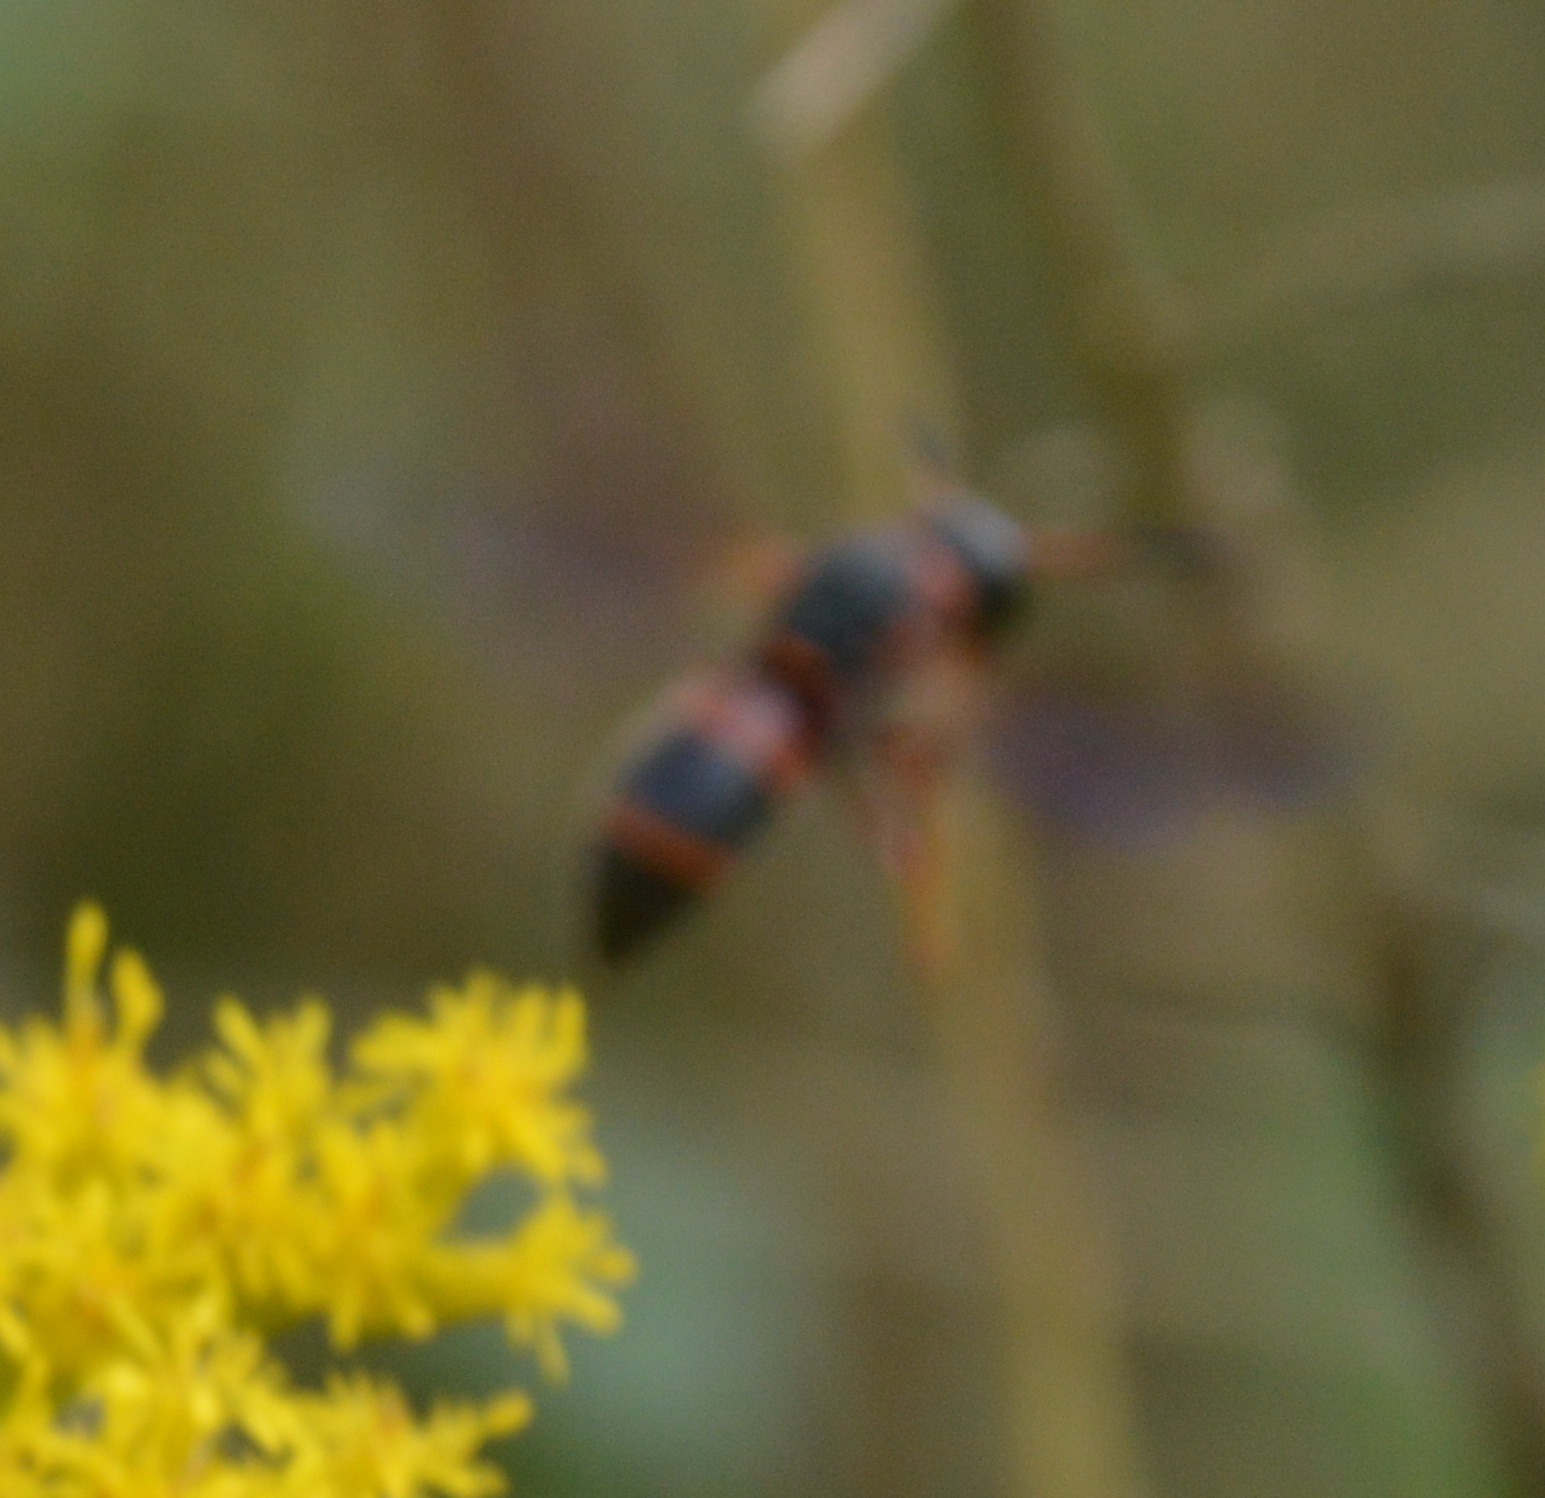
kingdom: Animalia
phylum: Arthropoda
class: Insecta
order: Hymenoptera
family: Eumenidae
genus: Pachodynerus
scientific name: Pachodynerus erynnis
